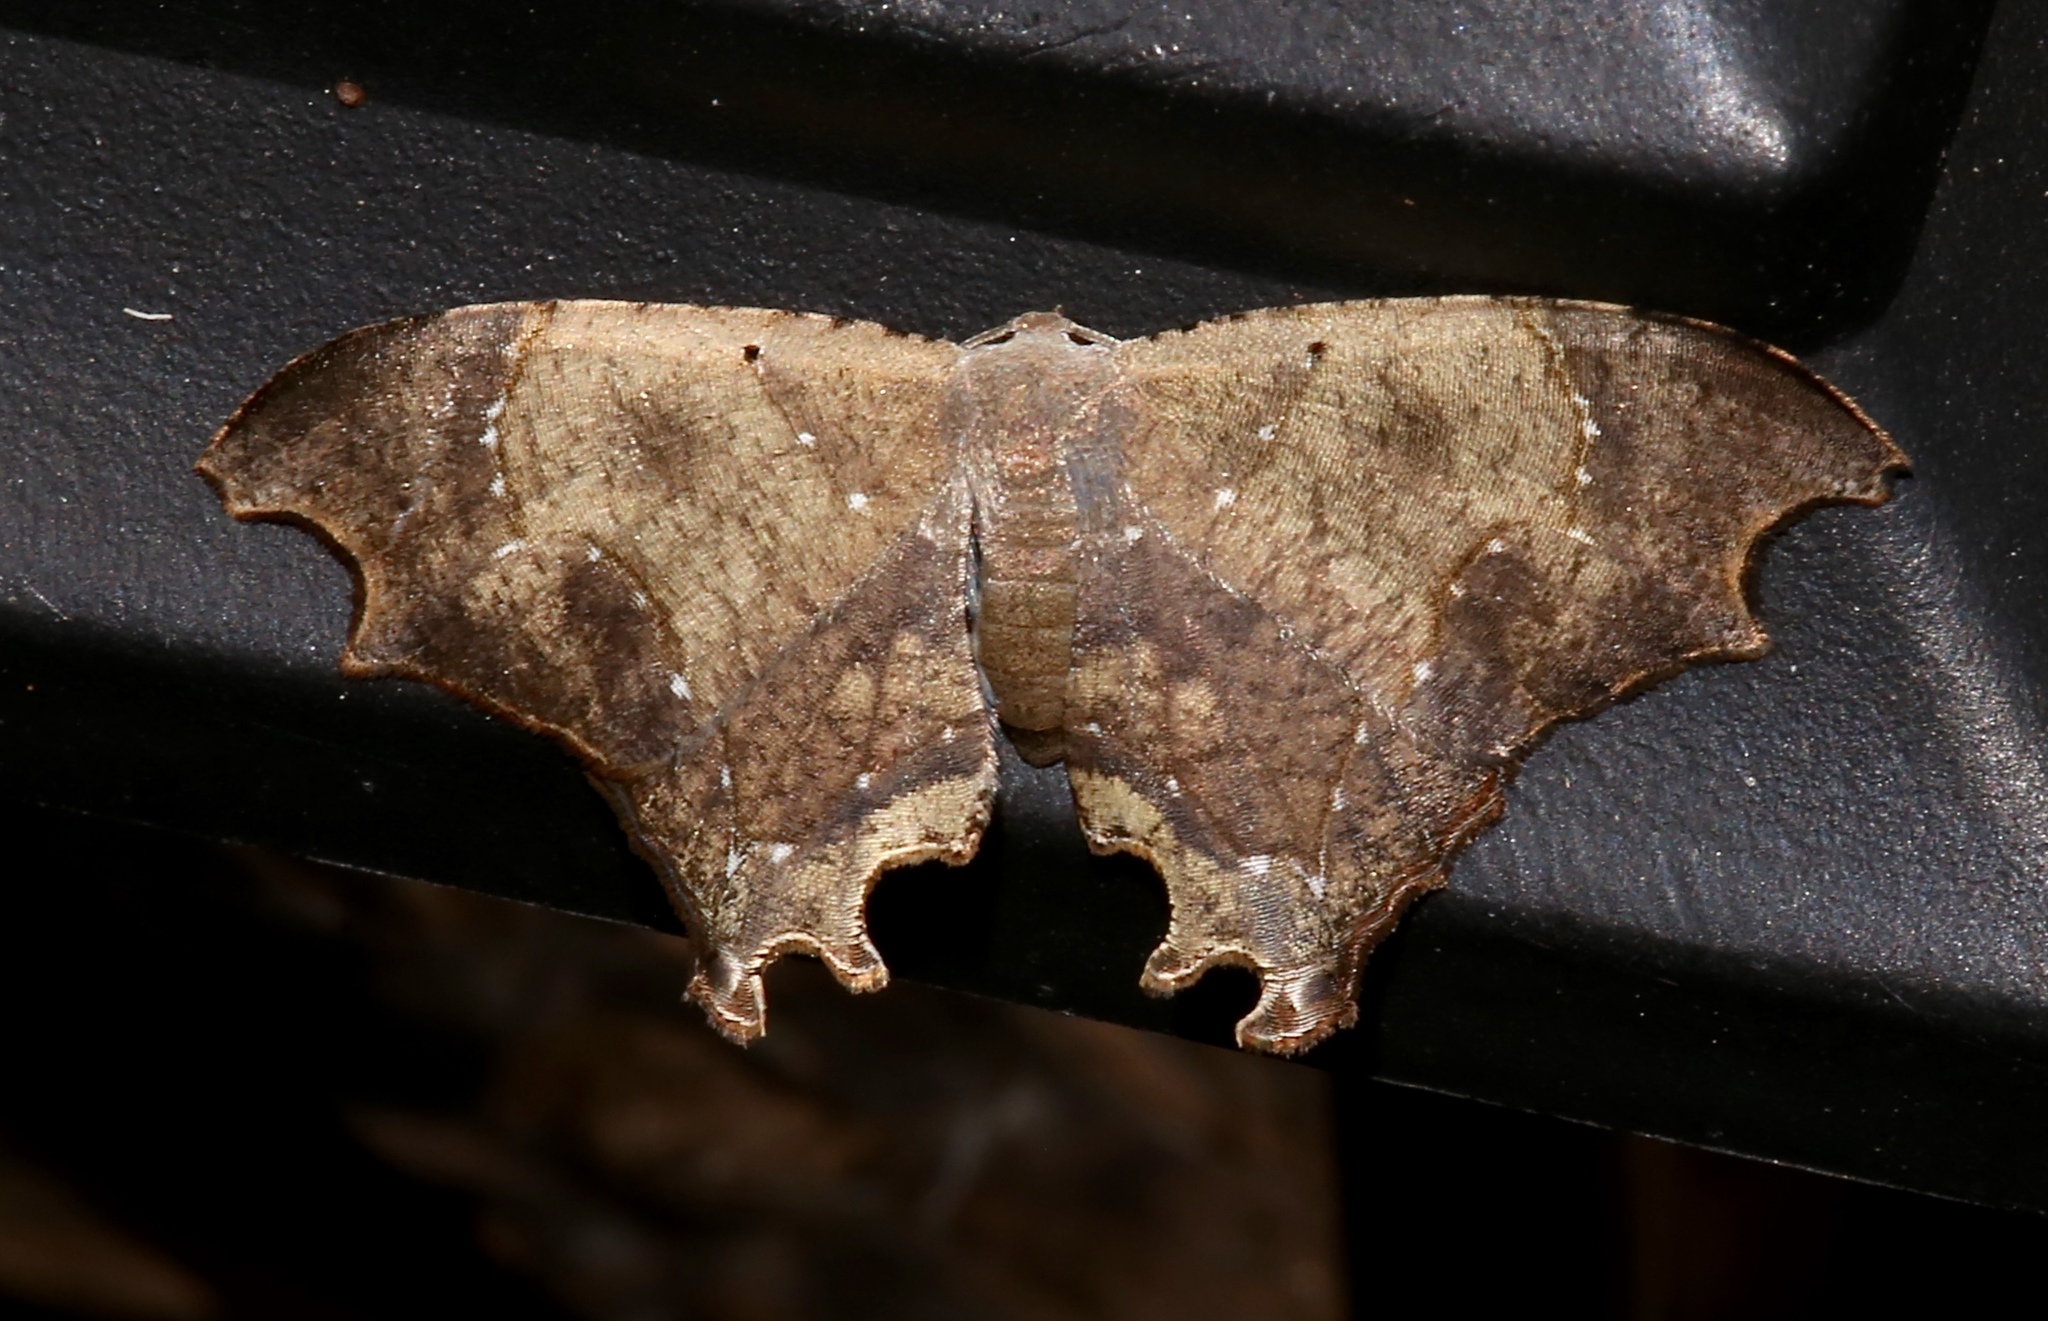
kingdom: Animalia
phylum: Arthropoda
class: Insecta
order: Lepidoptera
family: Uraniidae
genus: Trotorhombia
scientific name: Trotorhombia metachromata
